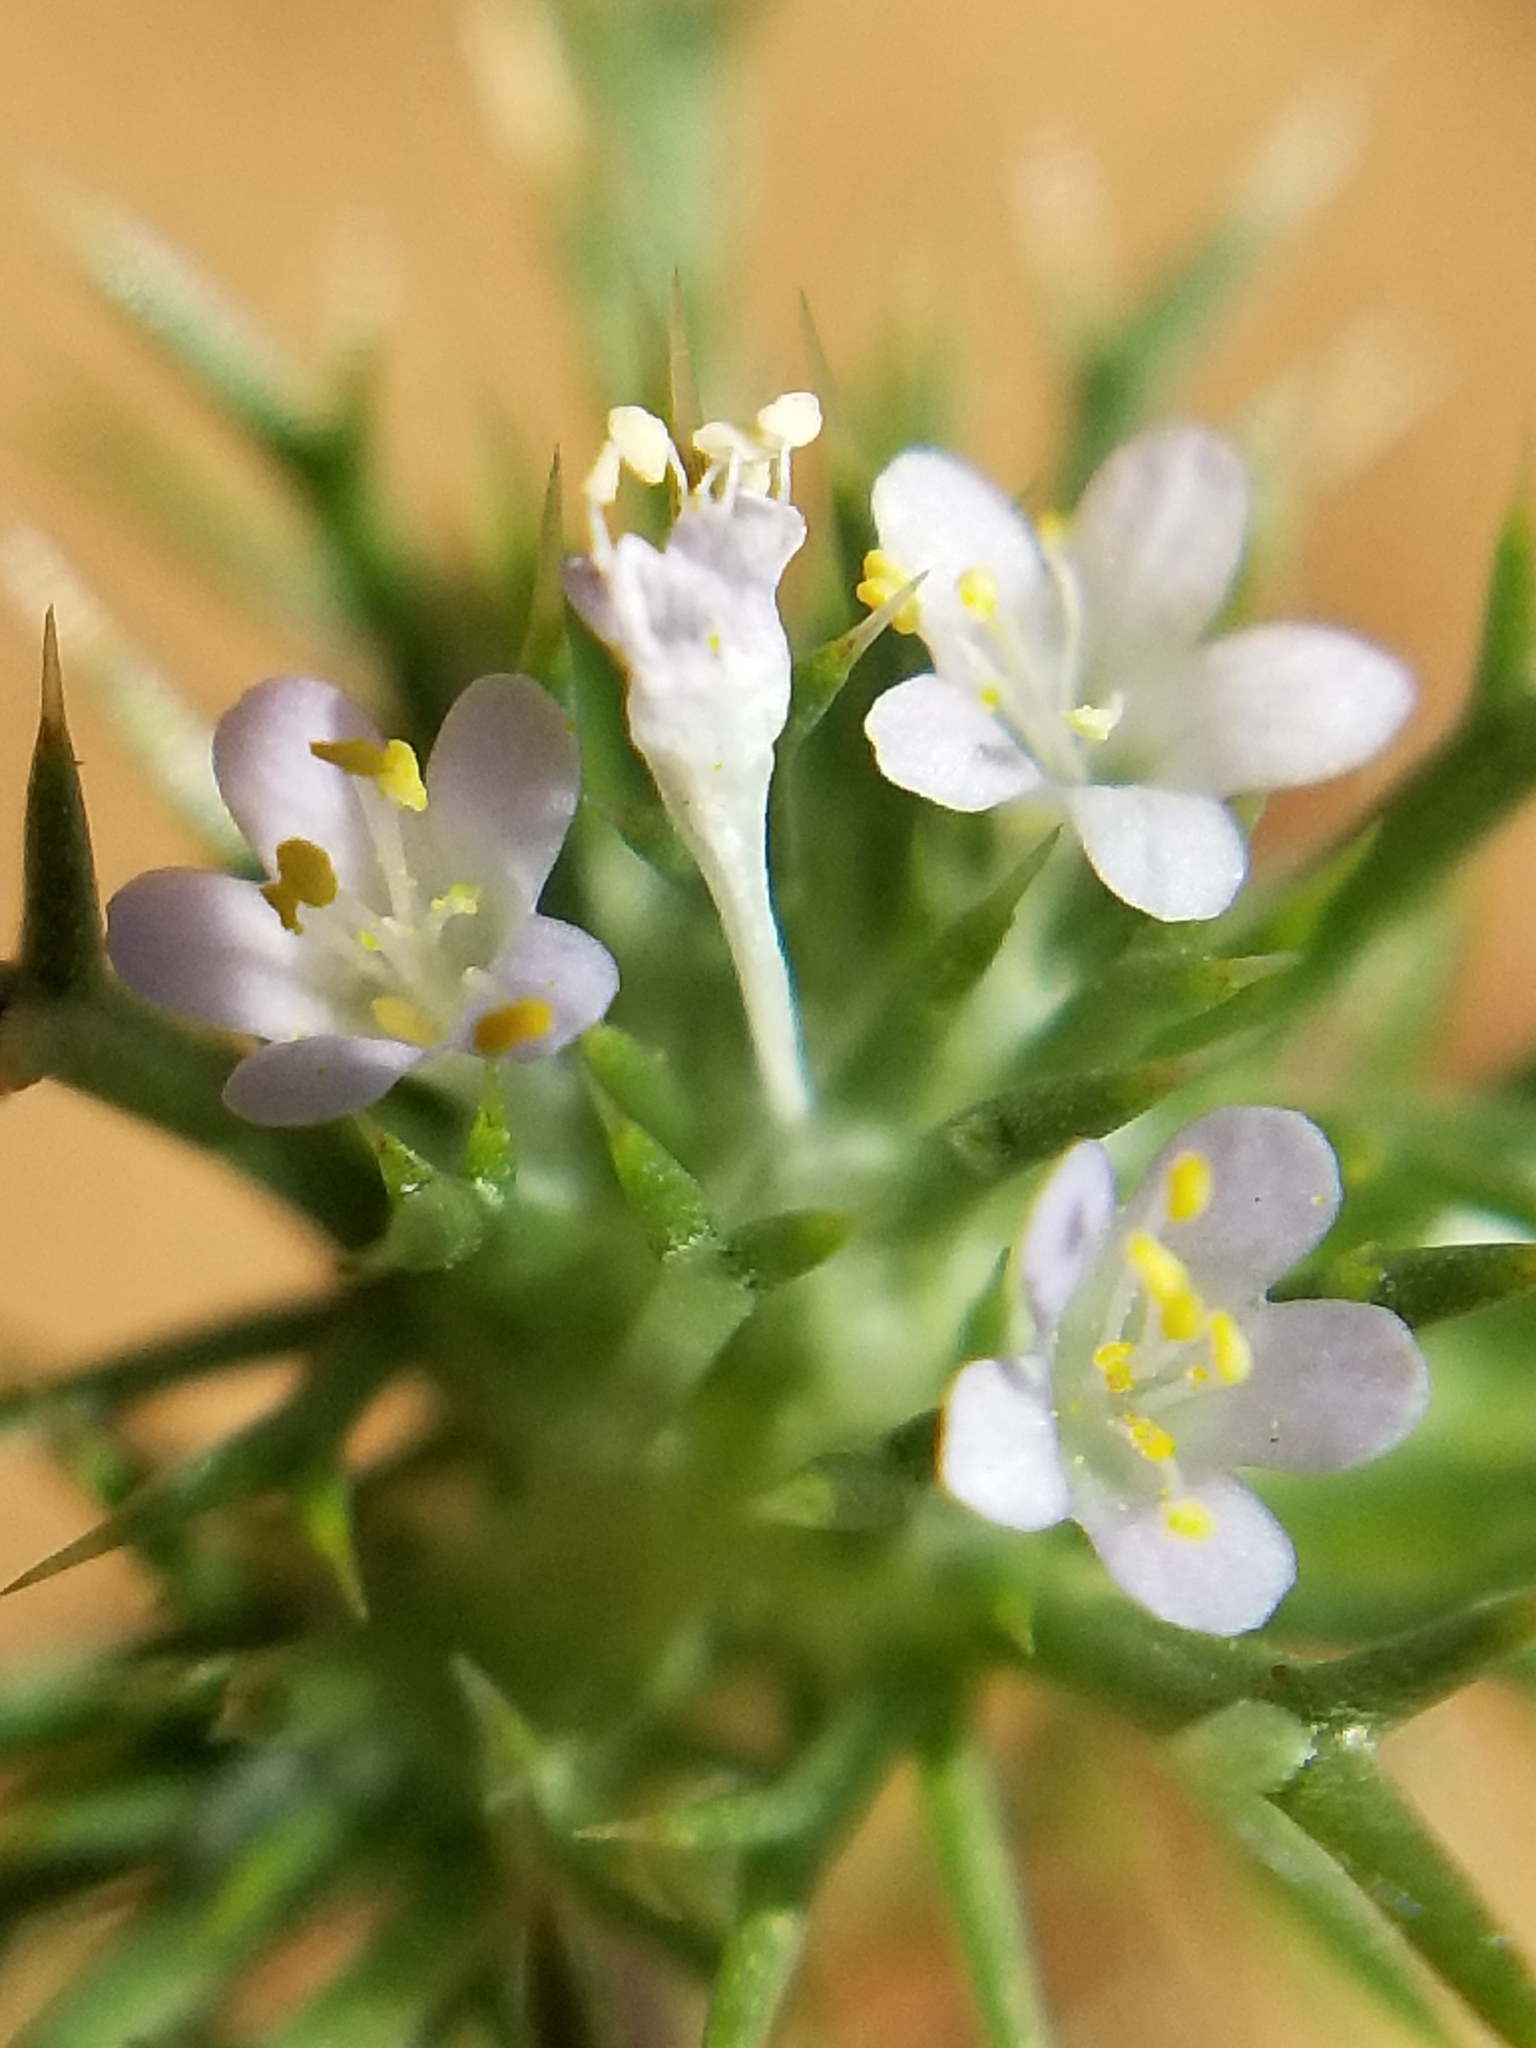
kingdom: Plantae
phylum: Tracheophyta
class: Magnoliopsida
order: Ericales
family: Polemoniaceae
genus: Navarretia
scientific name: Navarretia intertexta
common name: Needle-leaved navarretia
